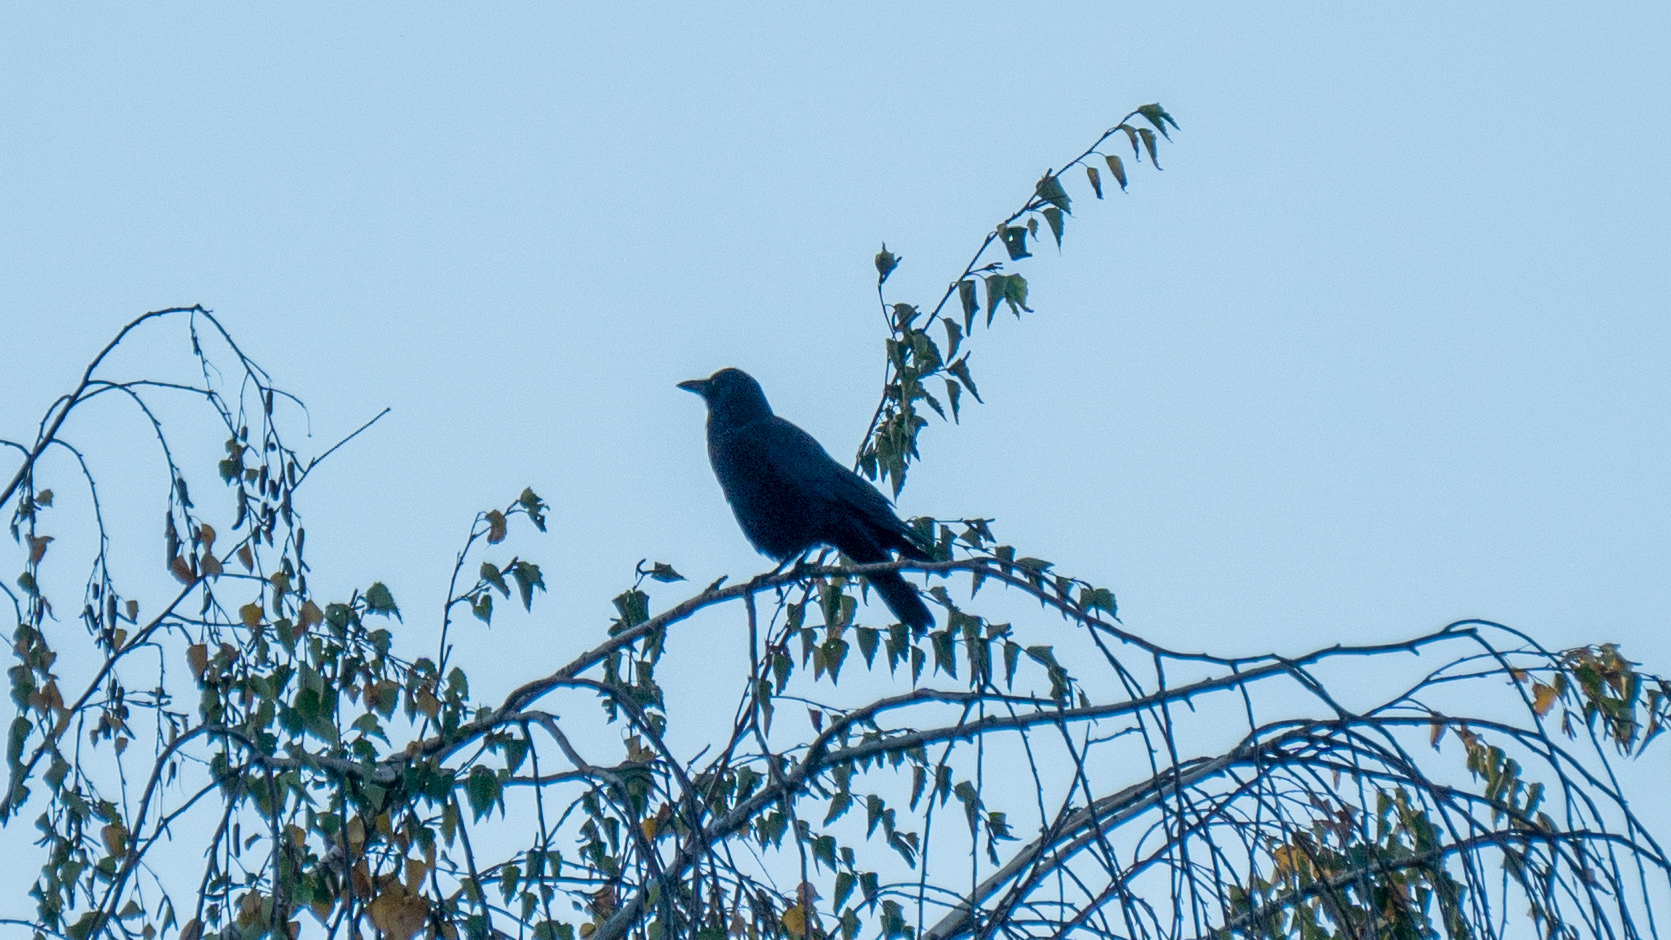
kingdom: Animalia
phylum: Chordata
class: Aves
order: Passeriformes
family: Corvidae
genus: Corvus
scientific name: Corvus brachyrhynchos
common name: American crow
